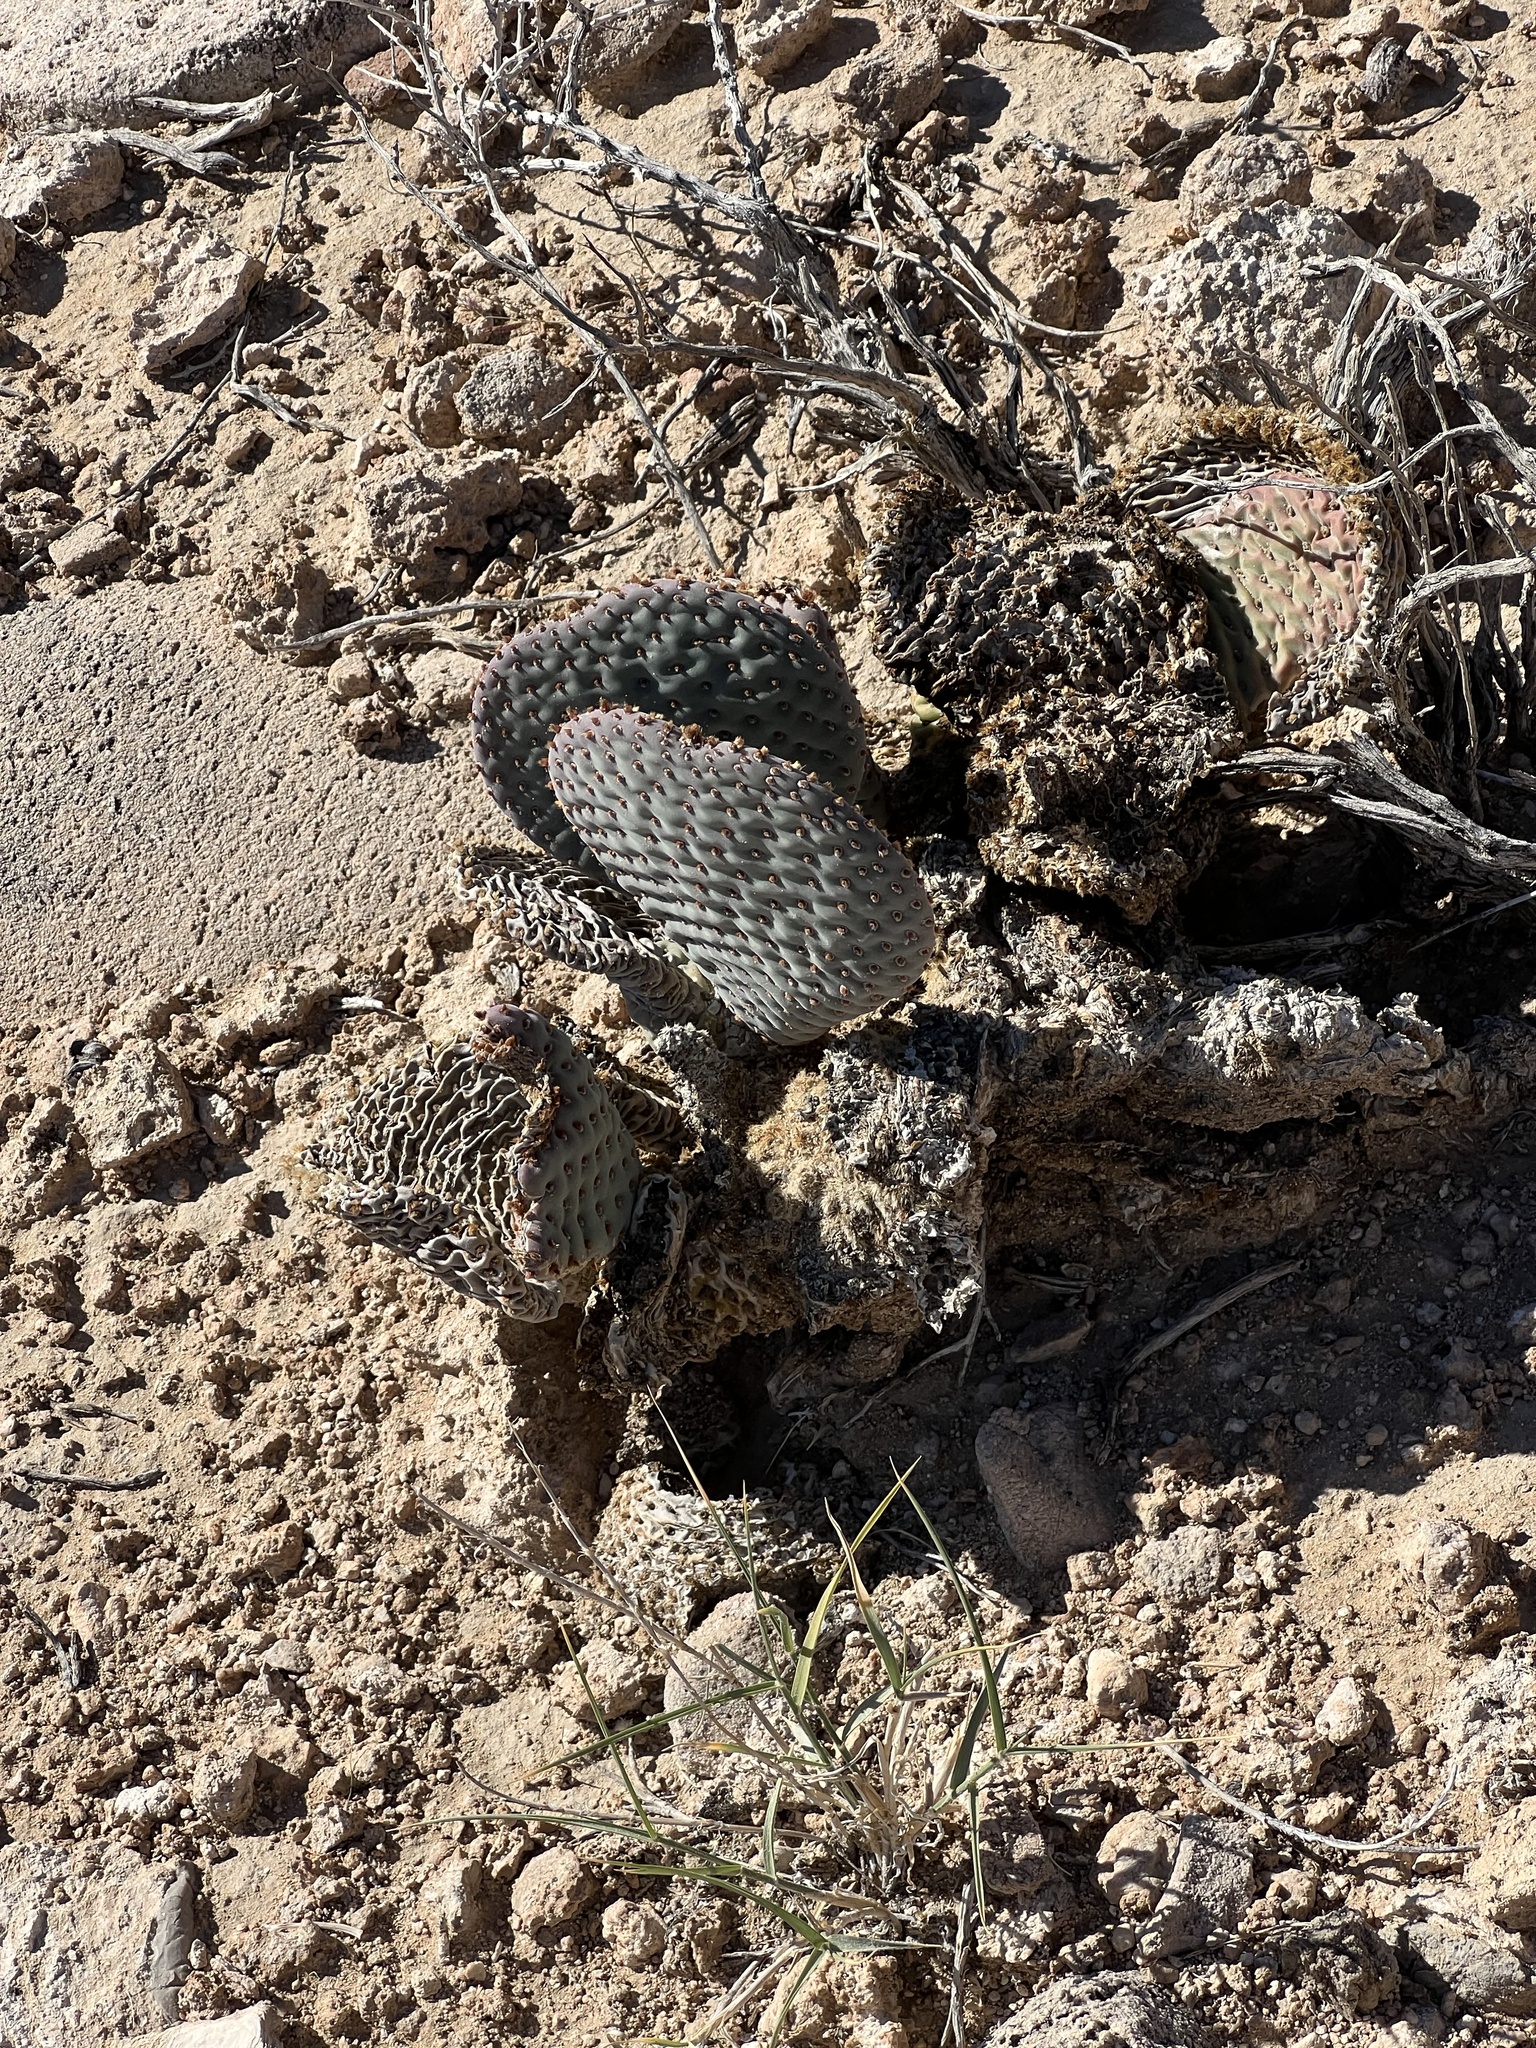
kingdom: Plantae
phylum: Tracheophyta
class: Magnoliopsida
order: Caryophyllales
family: Cactaceae
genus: Opuntia
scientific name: Opuntia basilaris
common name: Beavertail prickly-pear
